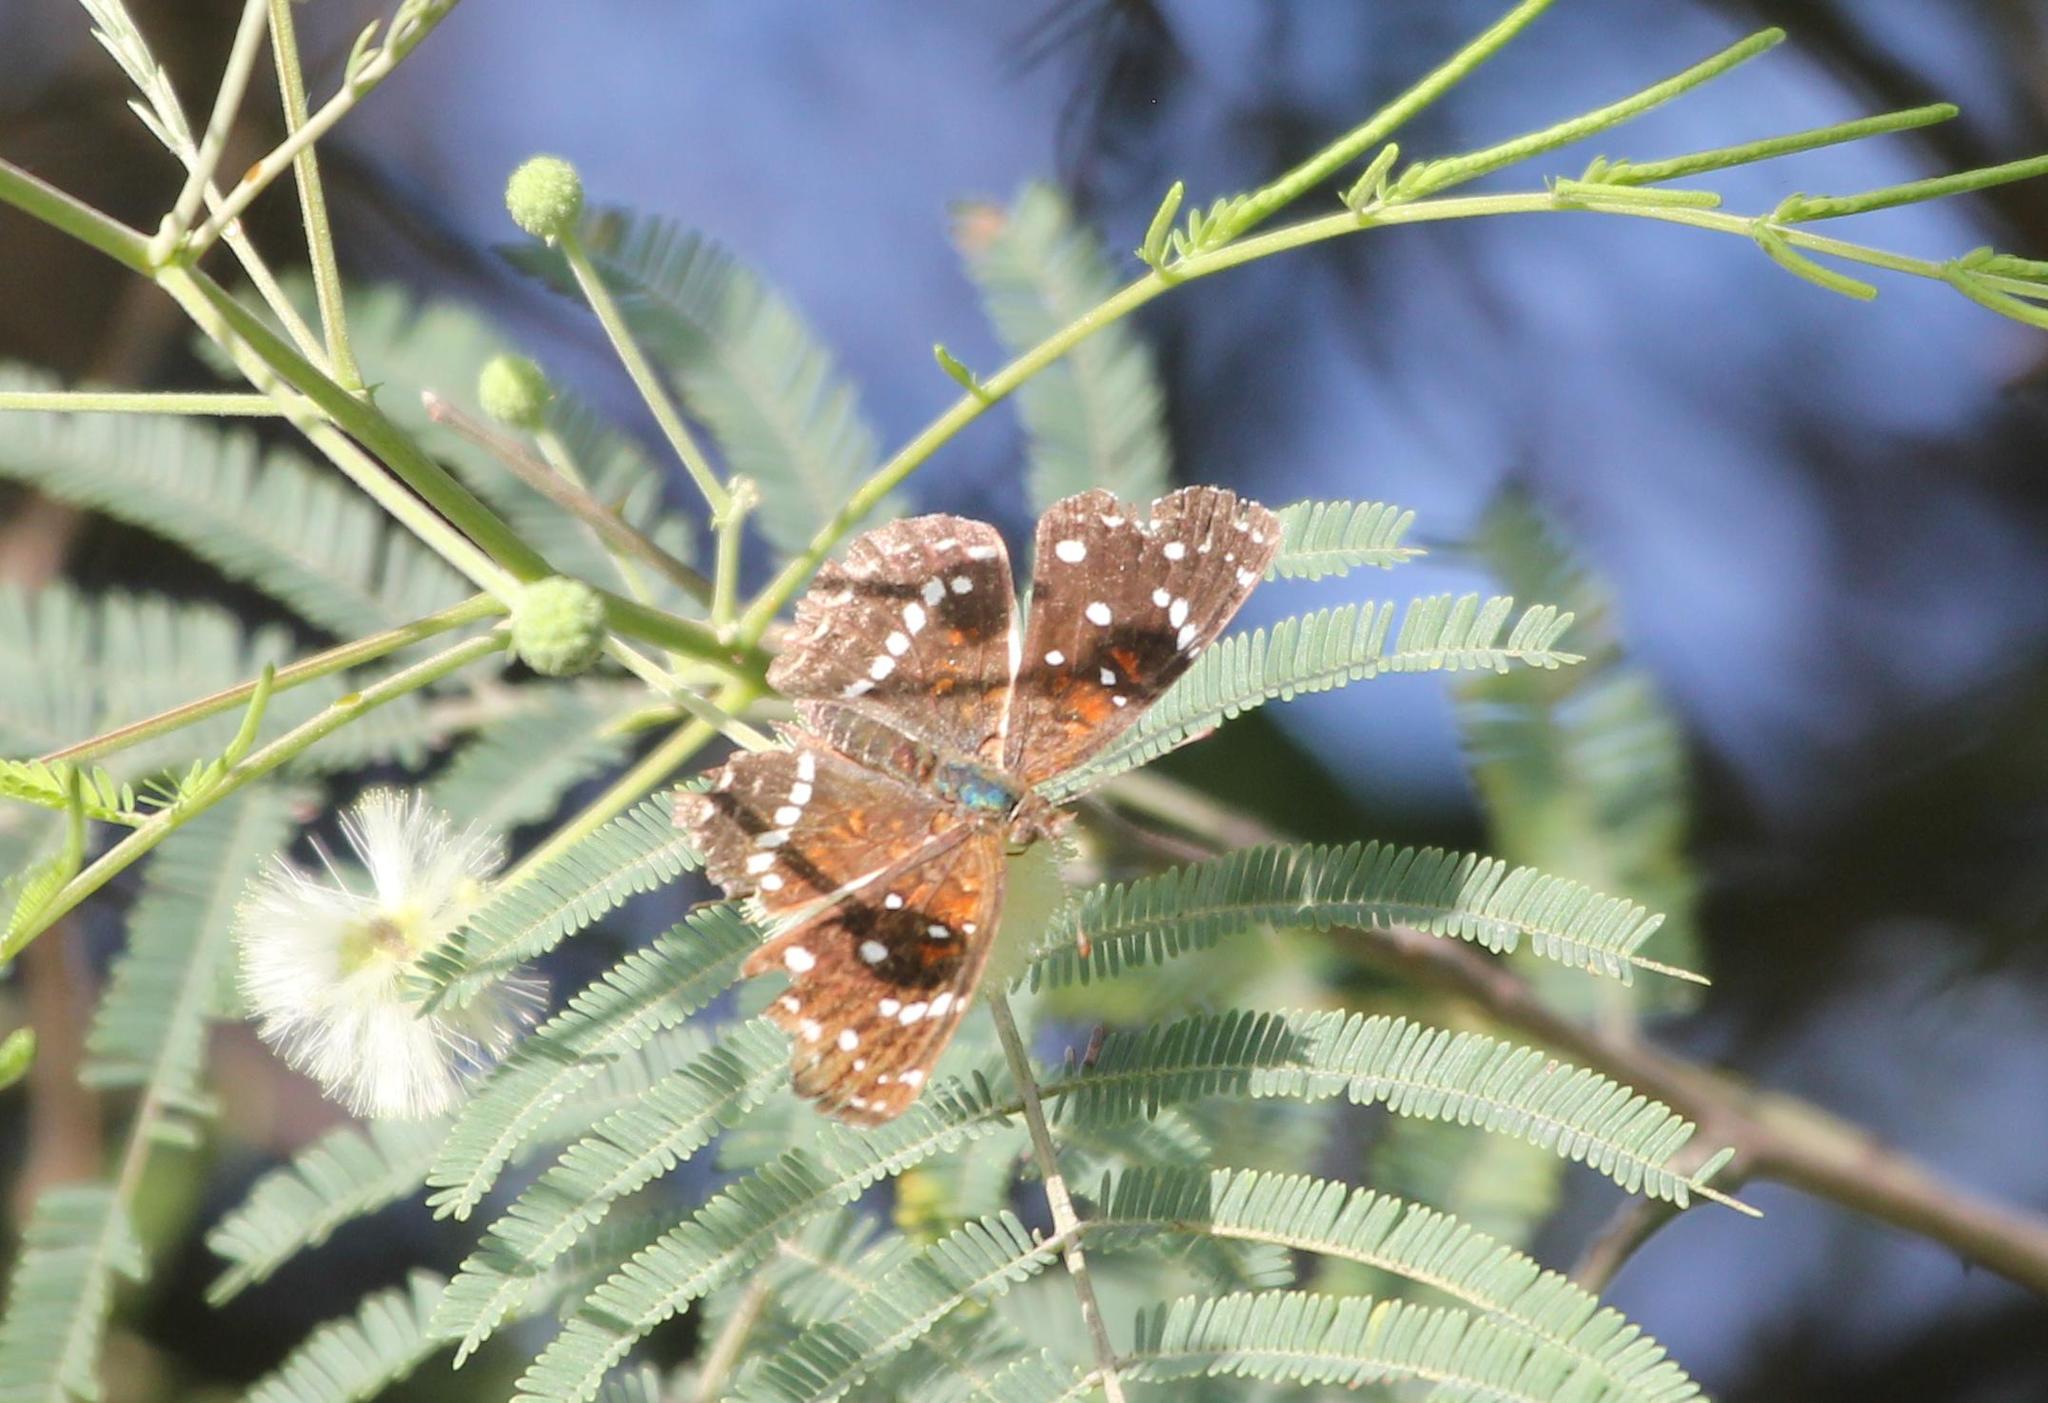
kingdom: Animalia
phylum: Arthropoda
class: Insecta
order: Lepidoptera
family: Nymphalidae
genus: Anthanassa
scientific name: Anthanassa texana
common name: Texan crescent
